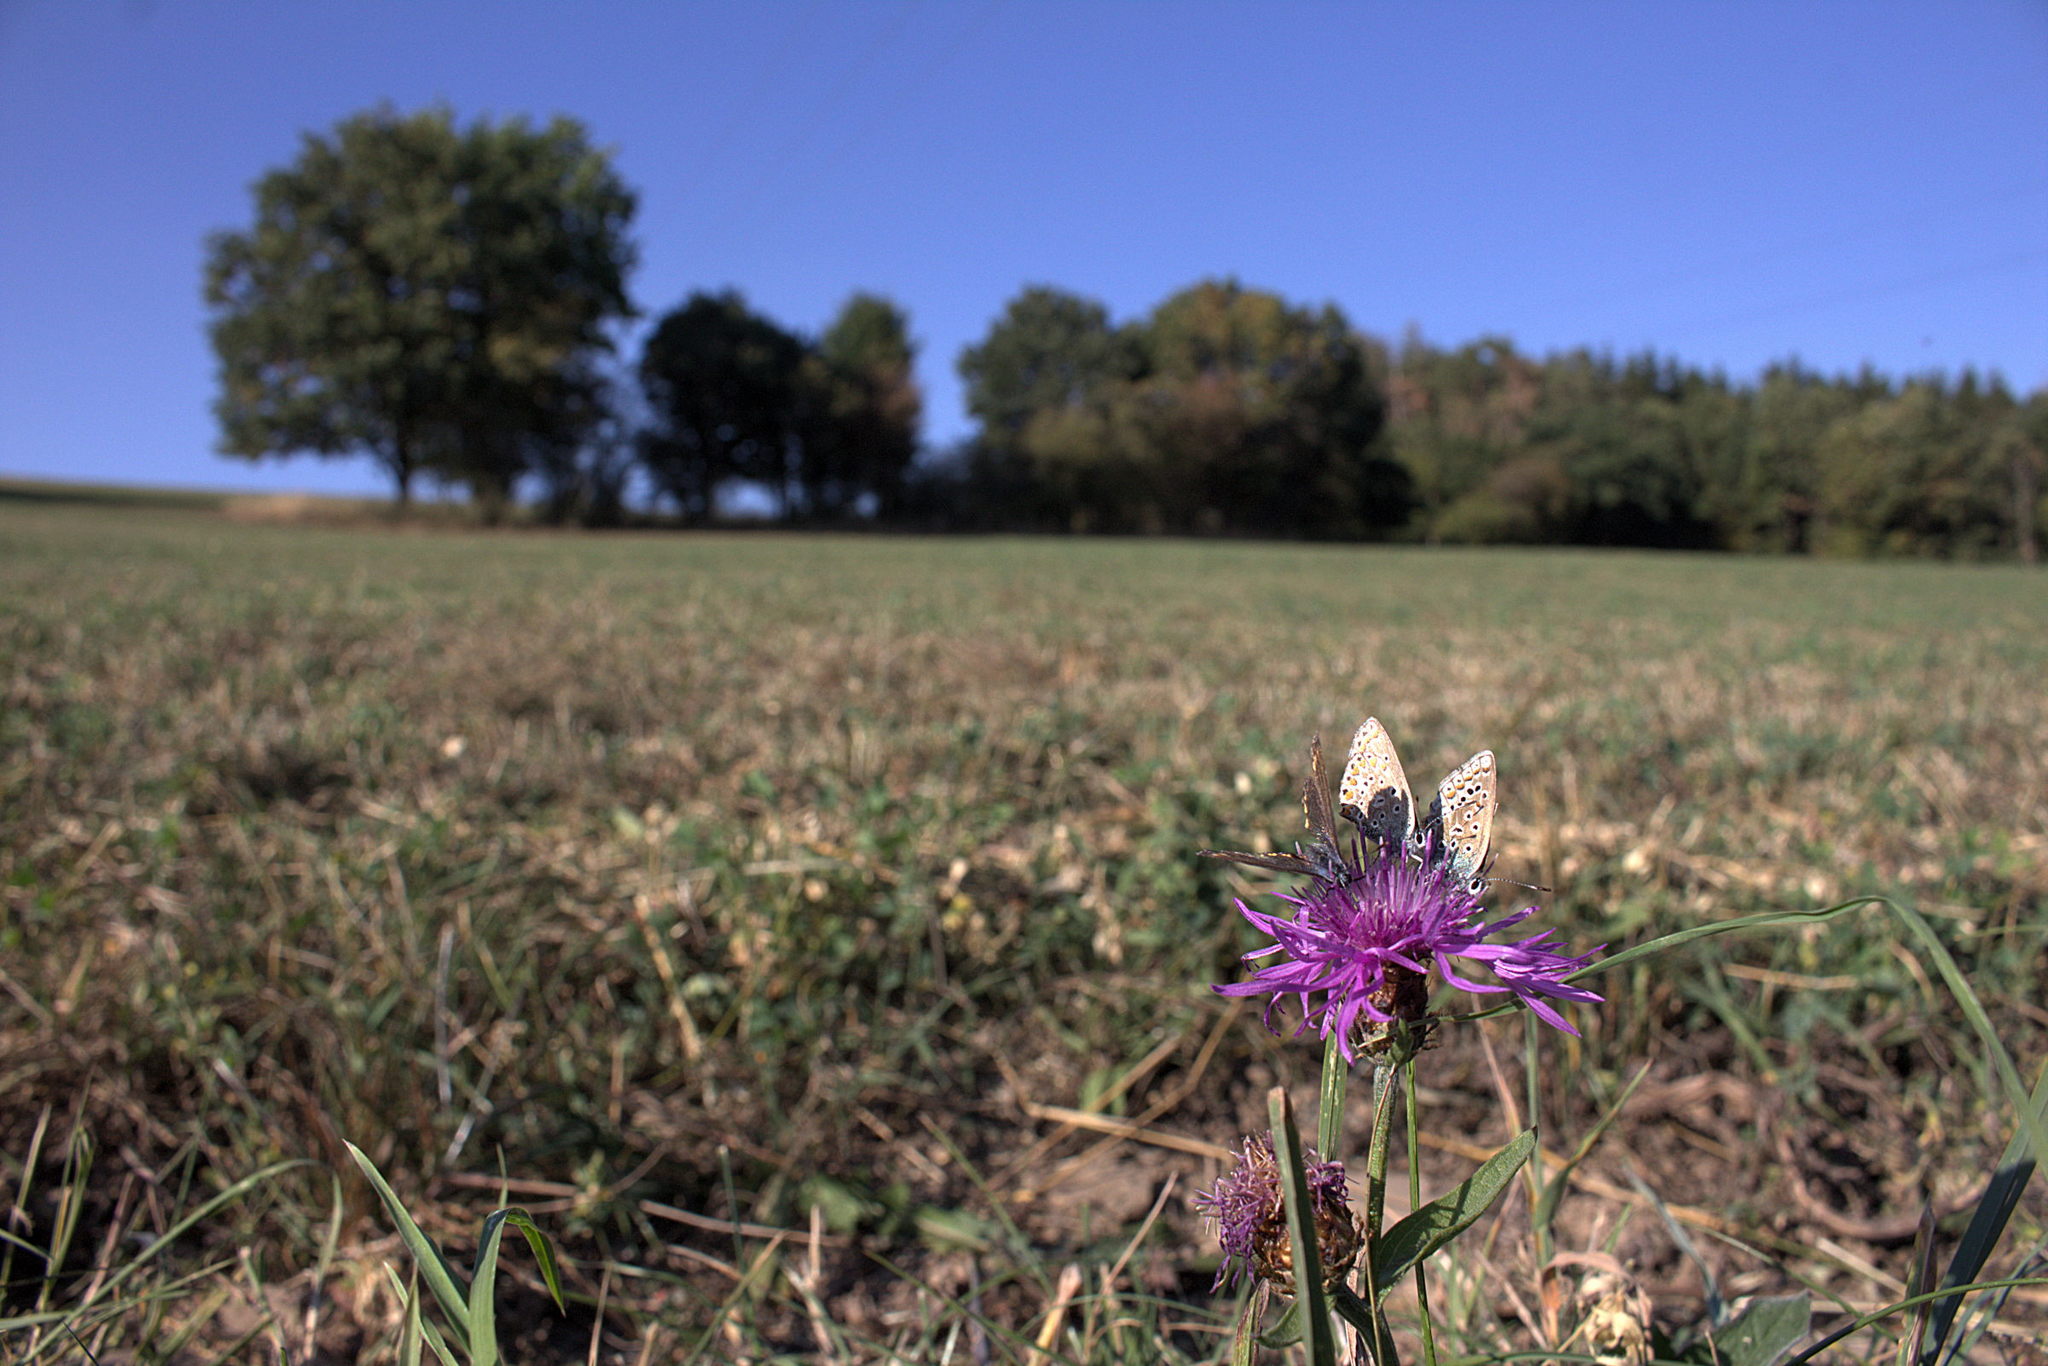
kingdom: Animalia
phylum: Arthropoda
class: Insecta
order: Lepidoptera
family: Lycaenidae
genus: Polyommatus
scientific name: Polyommatus icarus
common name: Common blue
